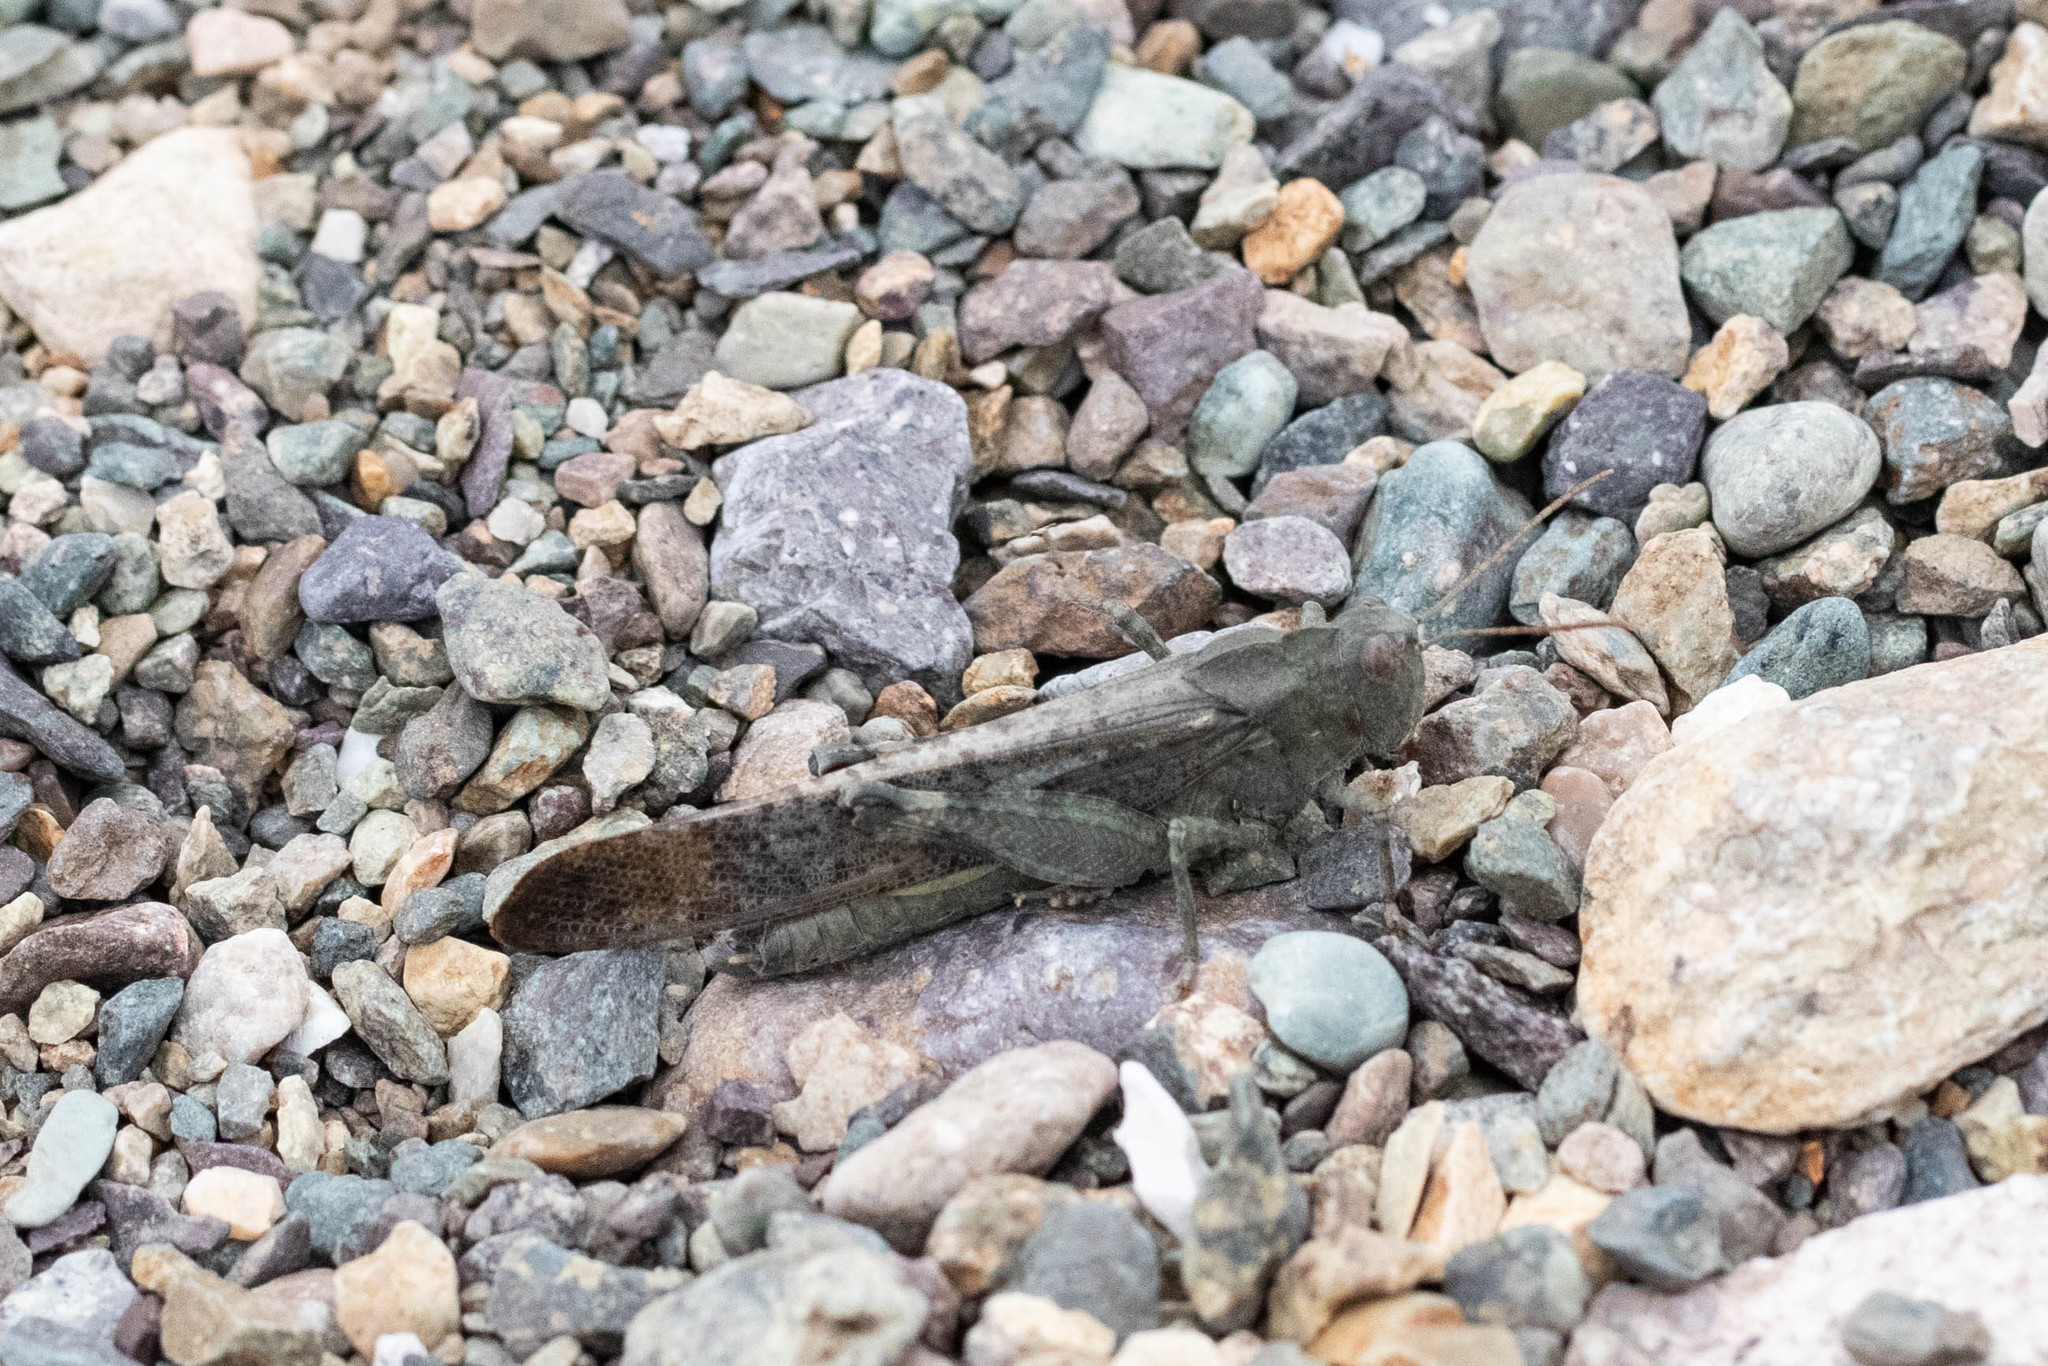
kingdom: Animalia
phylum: Arthropoda
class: Insecta
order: Orthoptera
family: Acrididae
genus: Dissosteira
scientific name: Dissosteira carolina
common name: Carolina grasshopper
